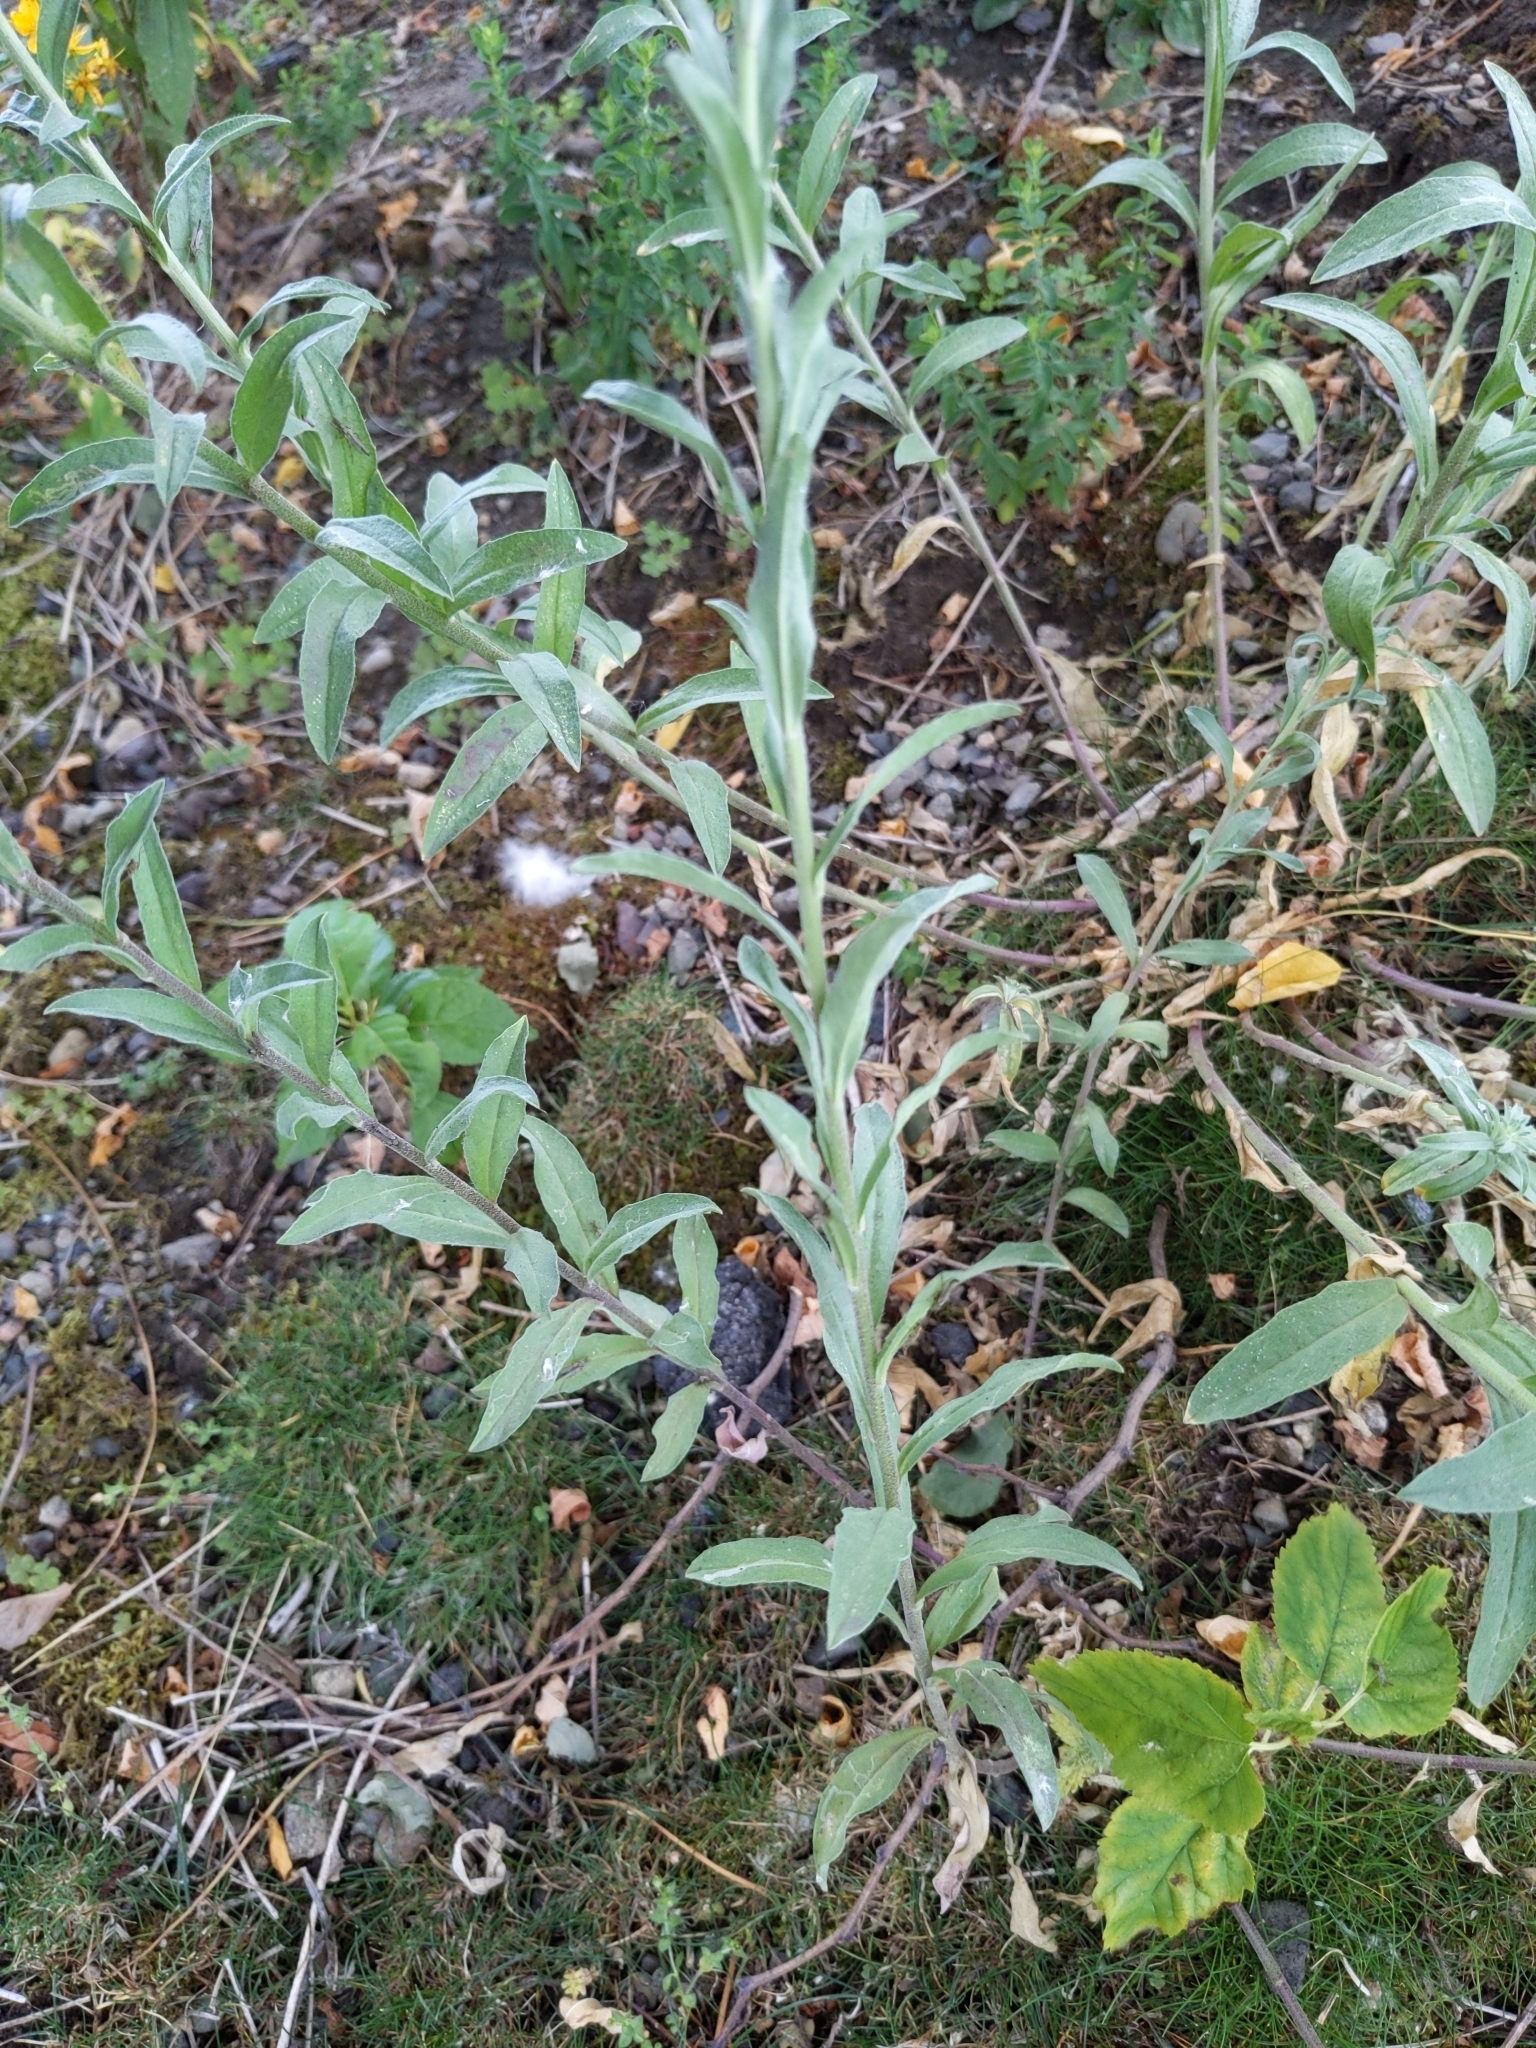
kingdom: Plantae
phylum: Tracheophyta
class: Magnoliopsida
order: Brassicales
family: Brassicaceae
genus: Berteroa
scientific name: Berteroa incana
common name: Hoary alison
